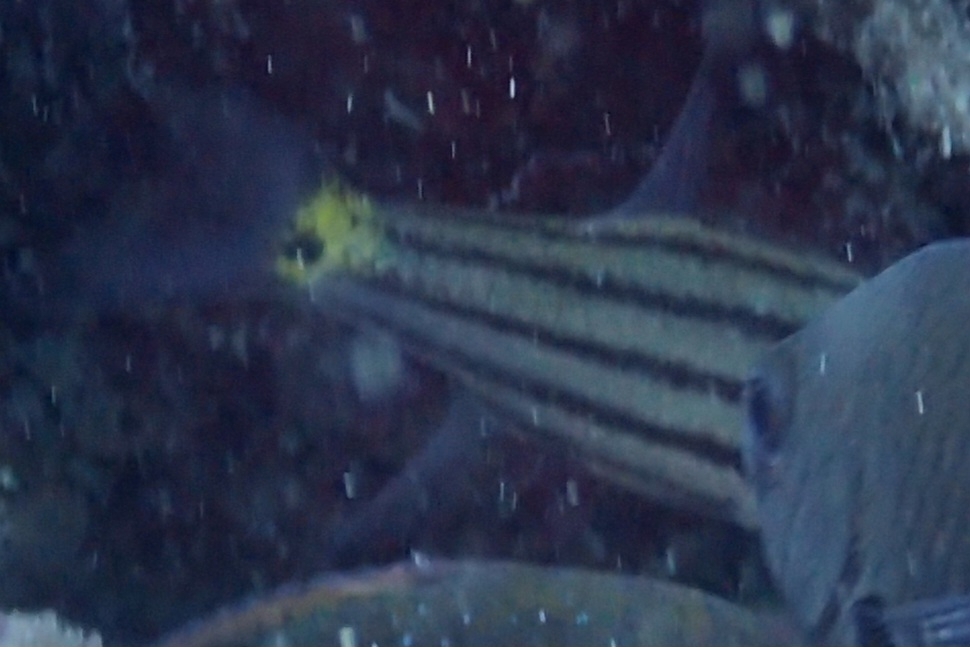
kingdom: Animalia
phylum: Chordata
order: Perciformes
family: Apogonidae
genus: Cheilodipterus
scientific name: Cheilodipterus quinquelineatus
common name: Five-lined cardinalfish
